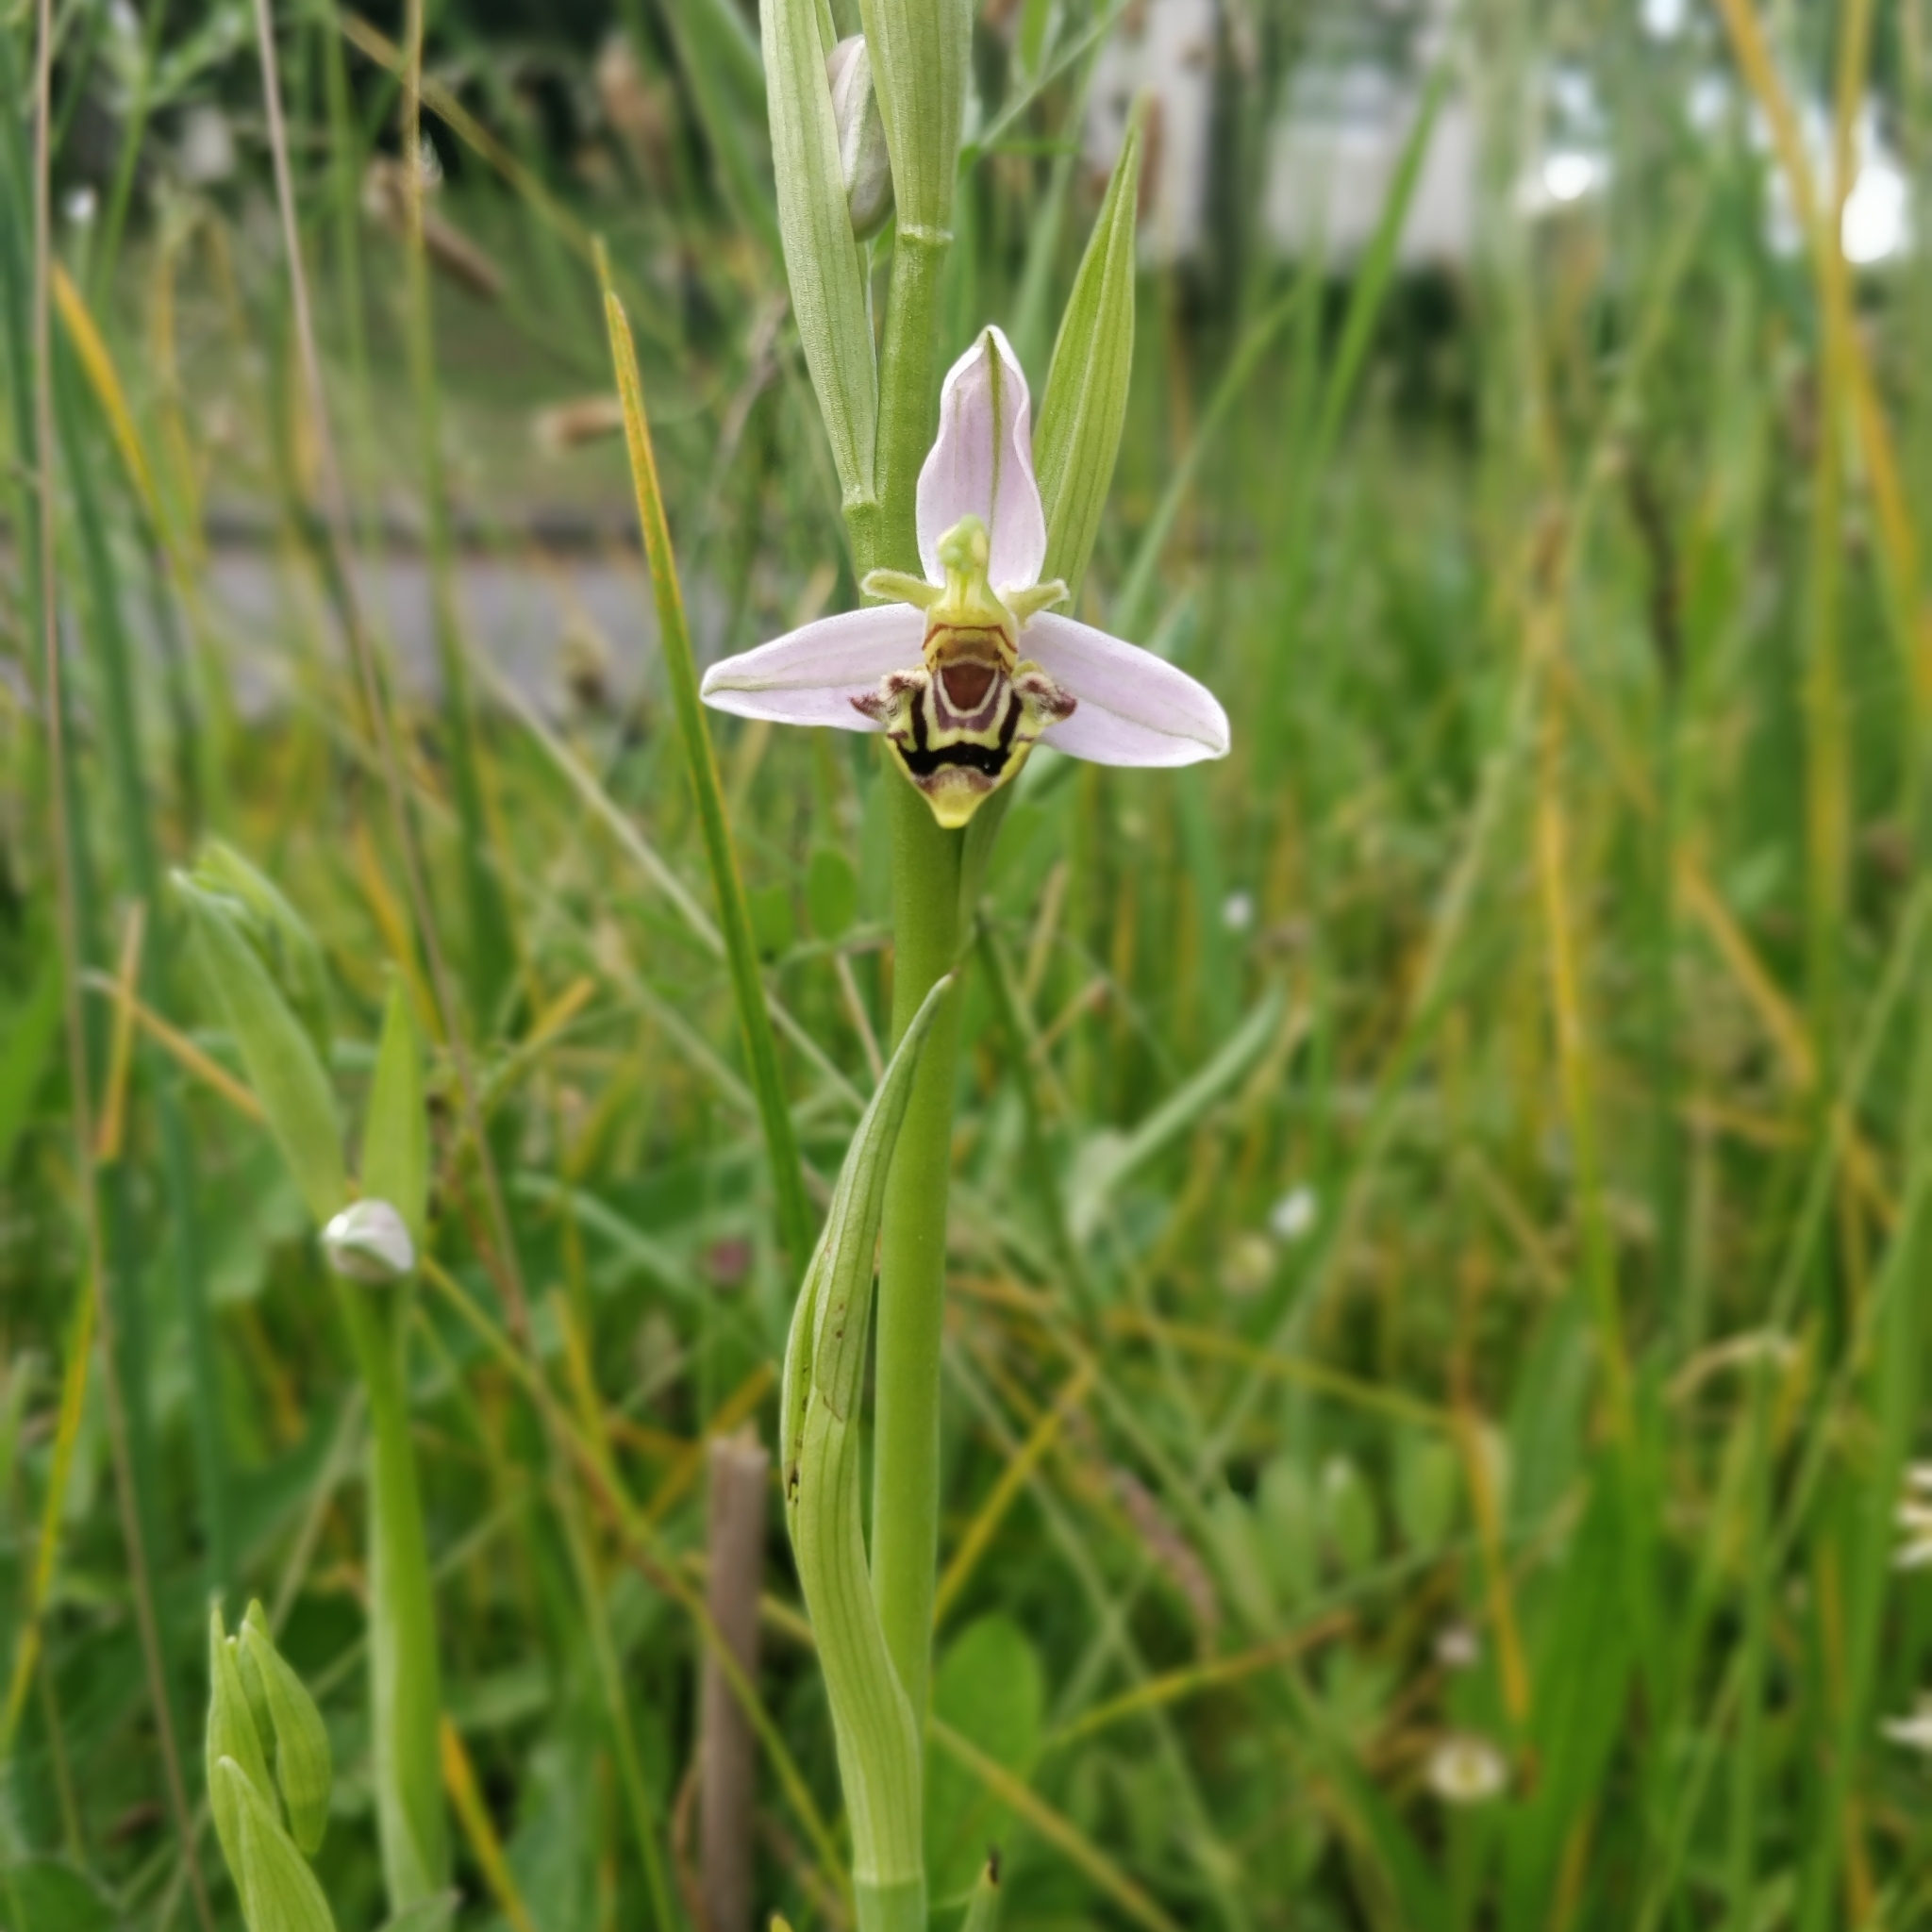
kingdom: Plantae
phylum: Tracheophyta
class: Liliopsida
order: Asparagales
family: Orchidaceae
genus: Ophrys
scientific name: Ophrys apifera
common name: Bee orchid
